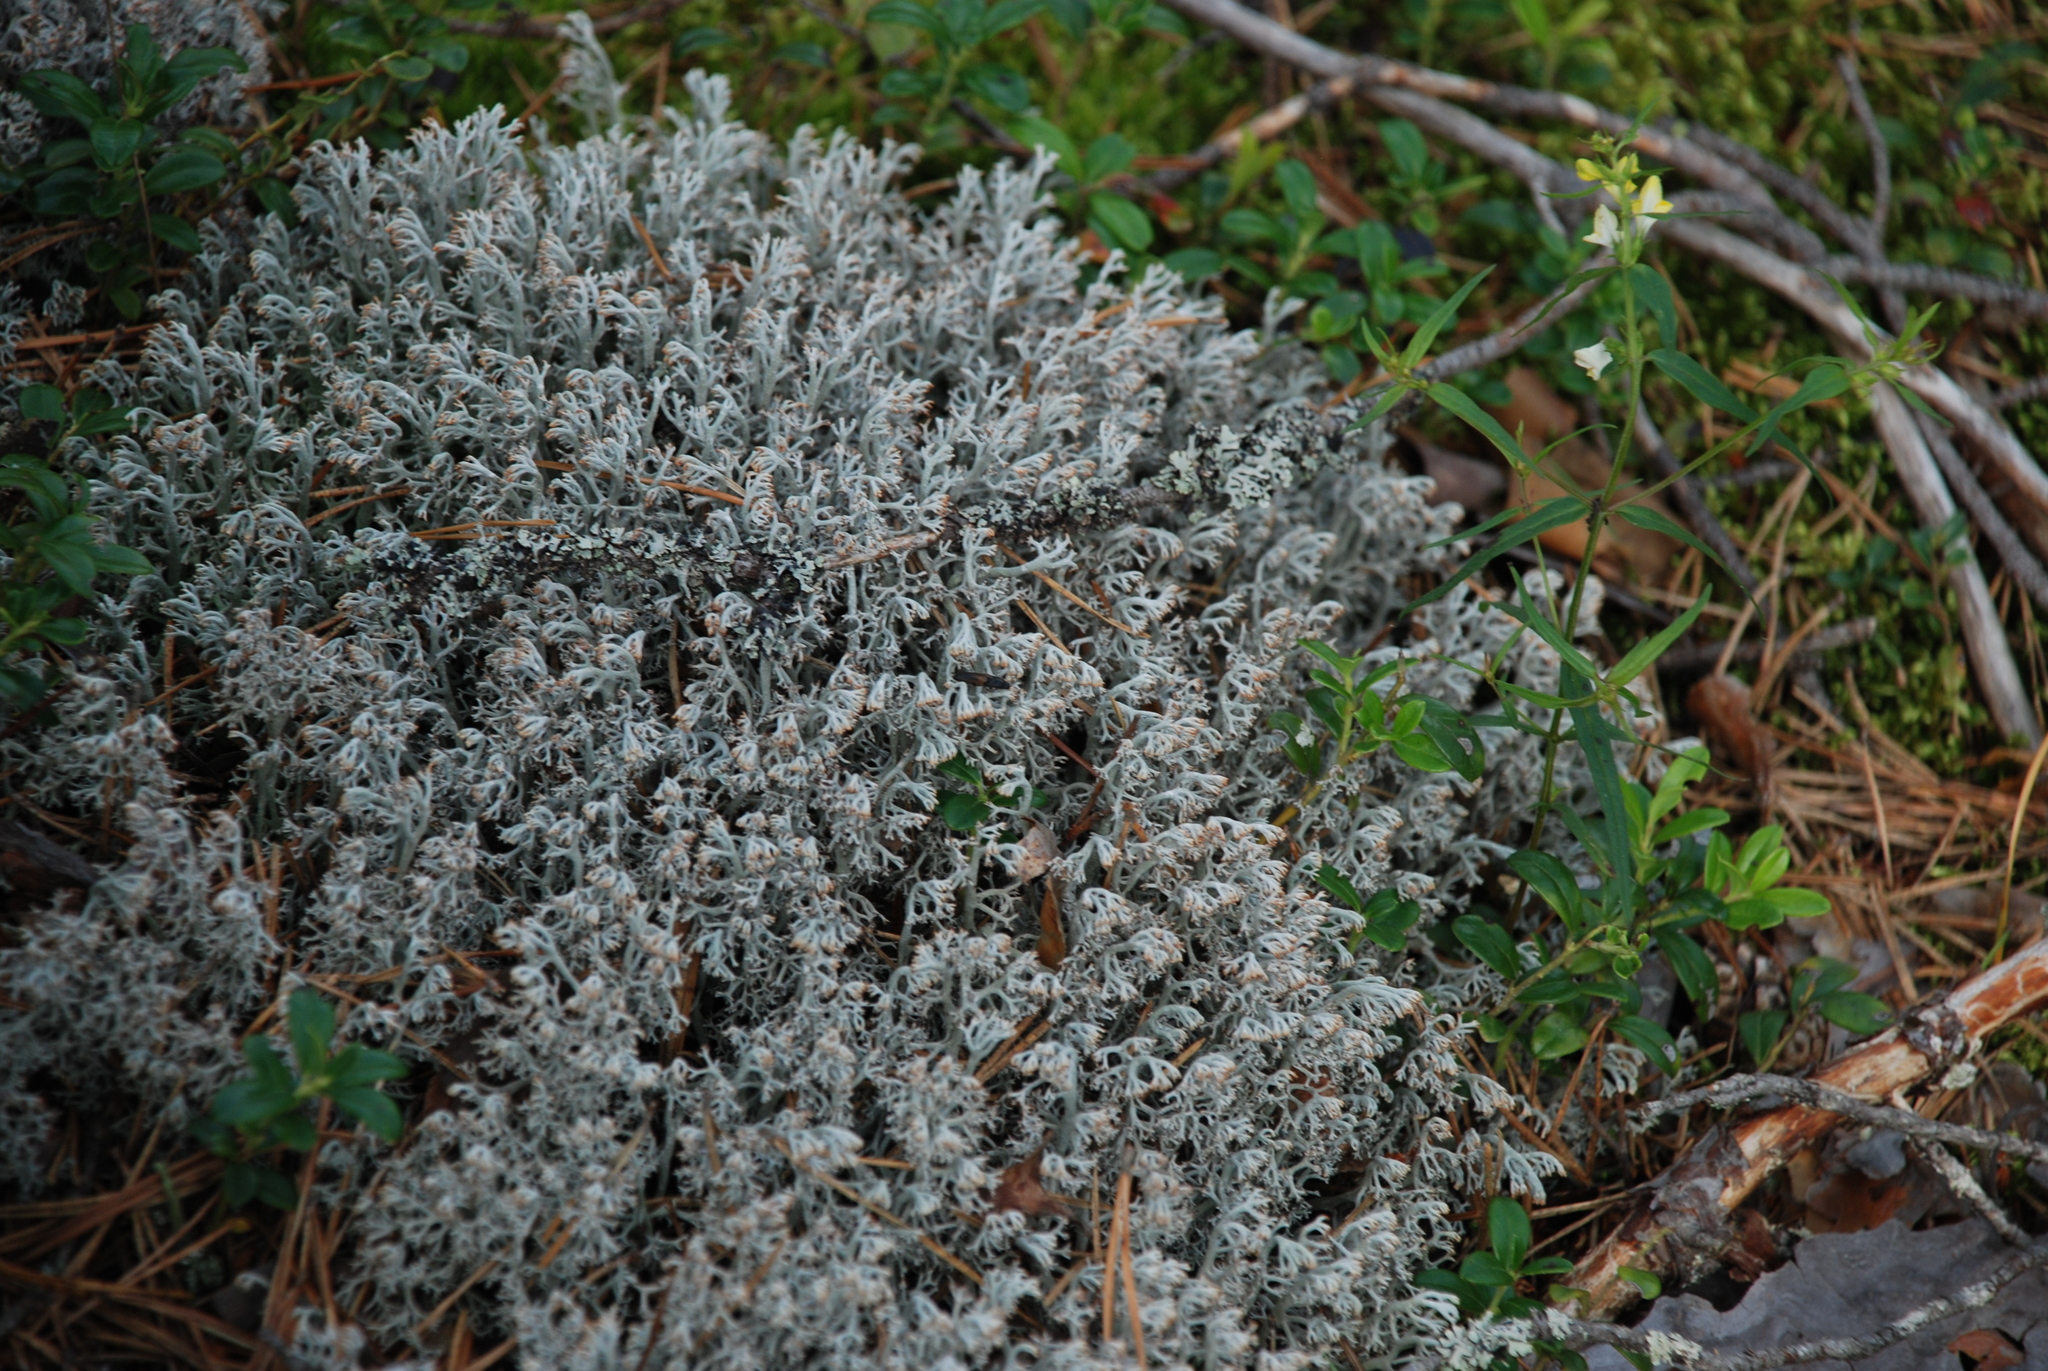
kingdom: Fungi
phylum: Ascomycota
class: Lecanoromycetes
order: Lecanorales
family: Cladoniaceae
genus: Cladonia
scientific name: Cladonia rangiferina
